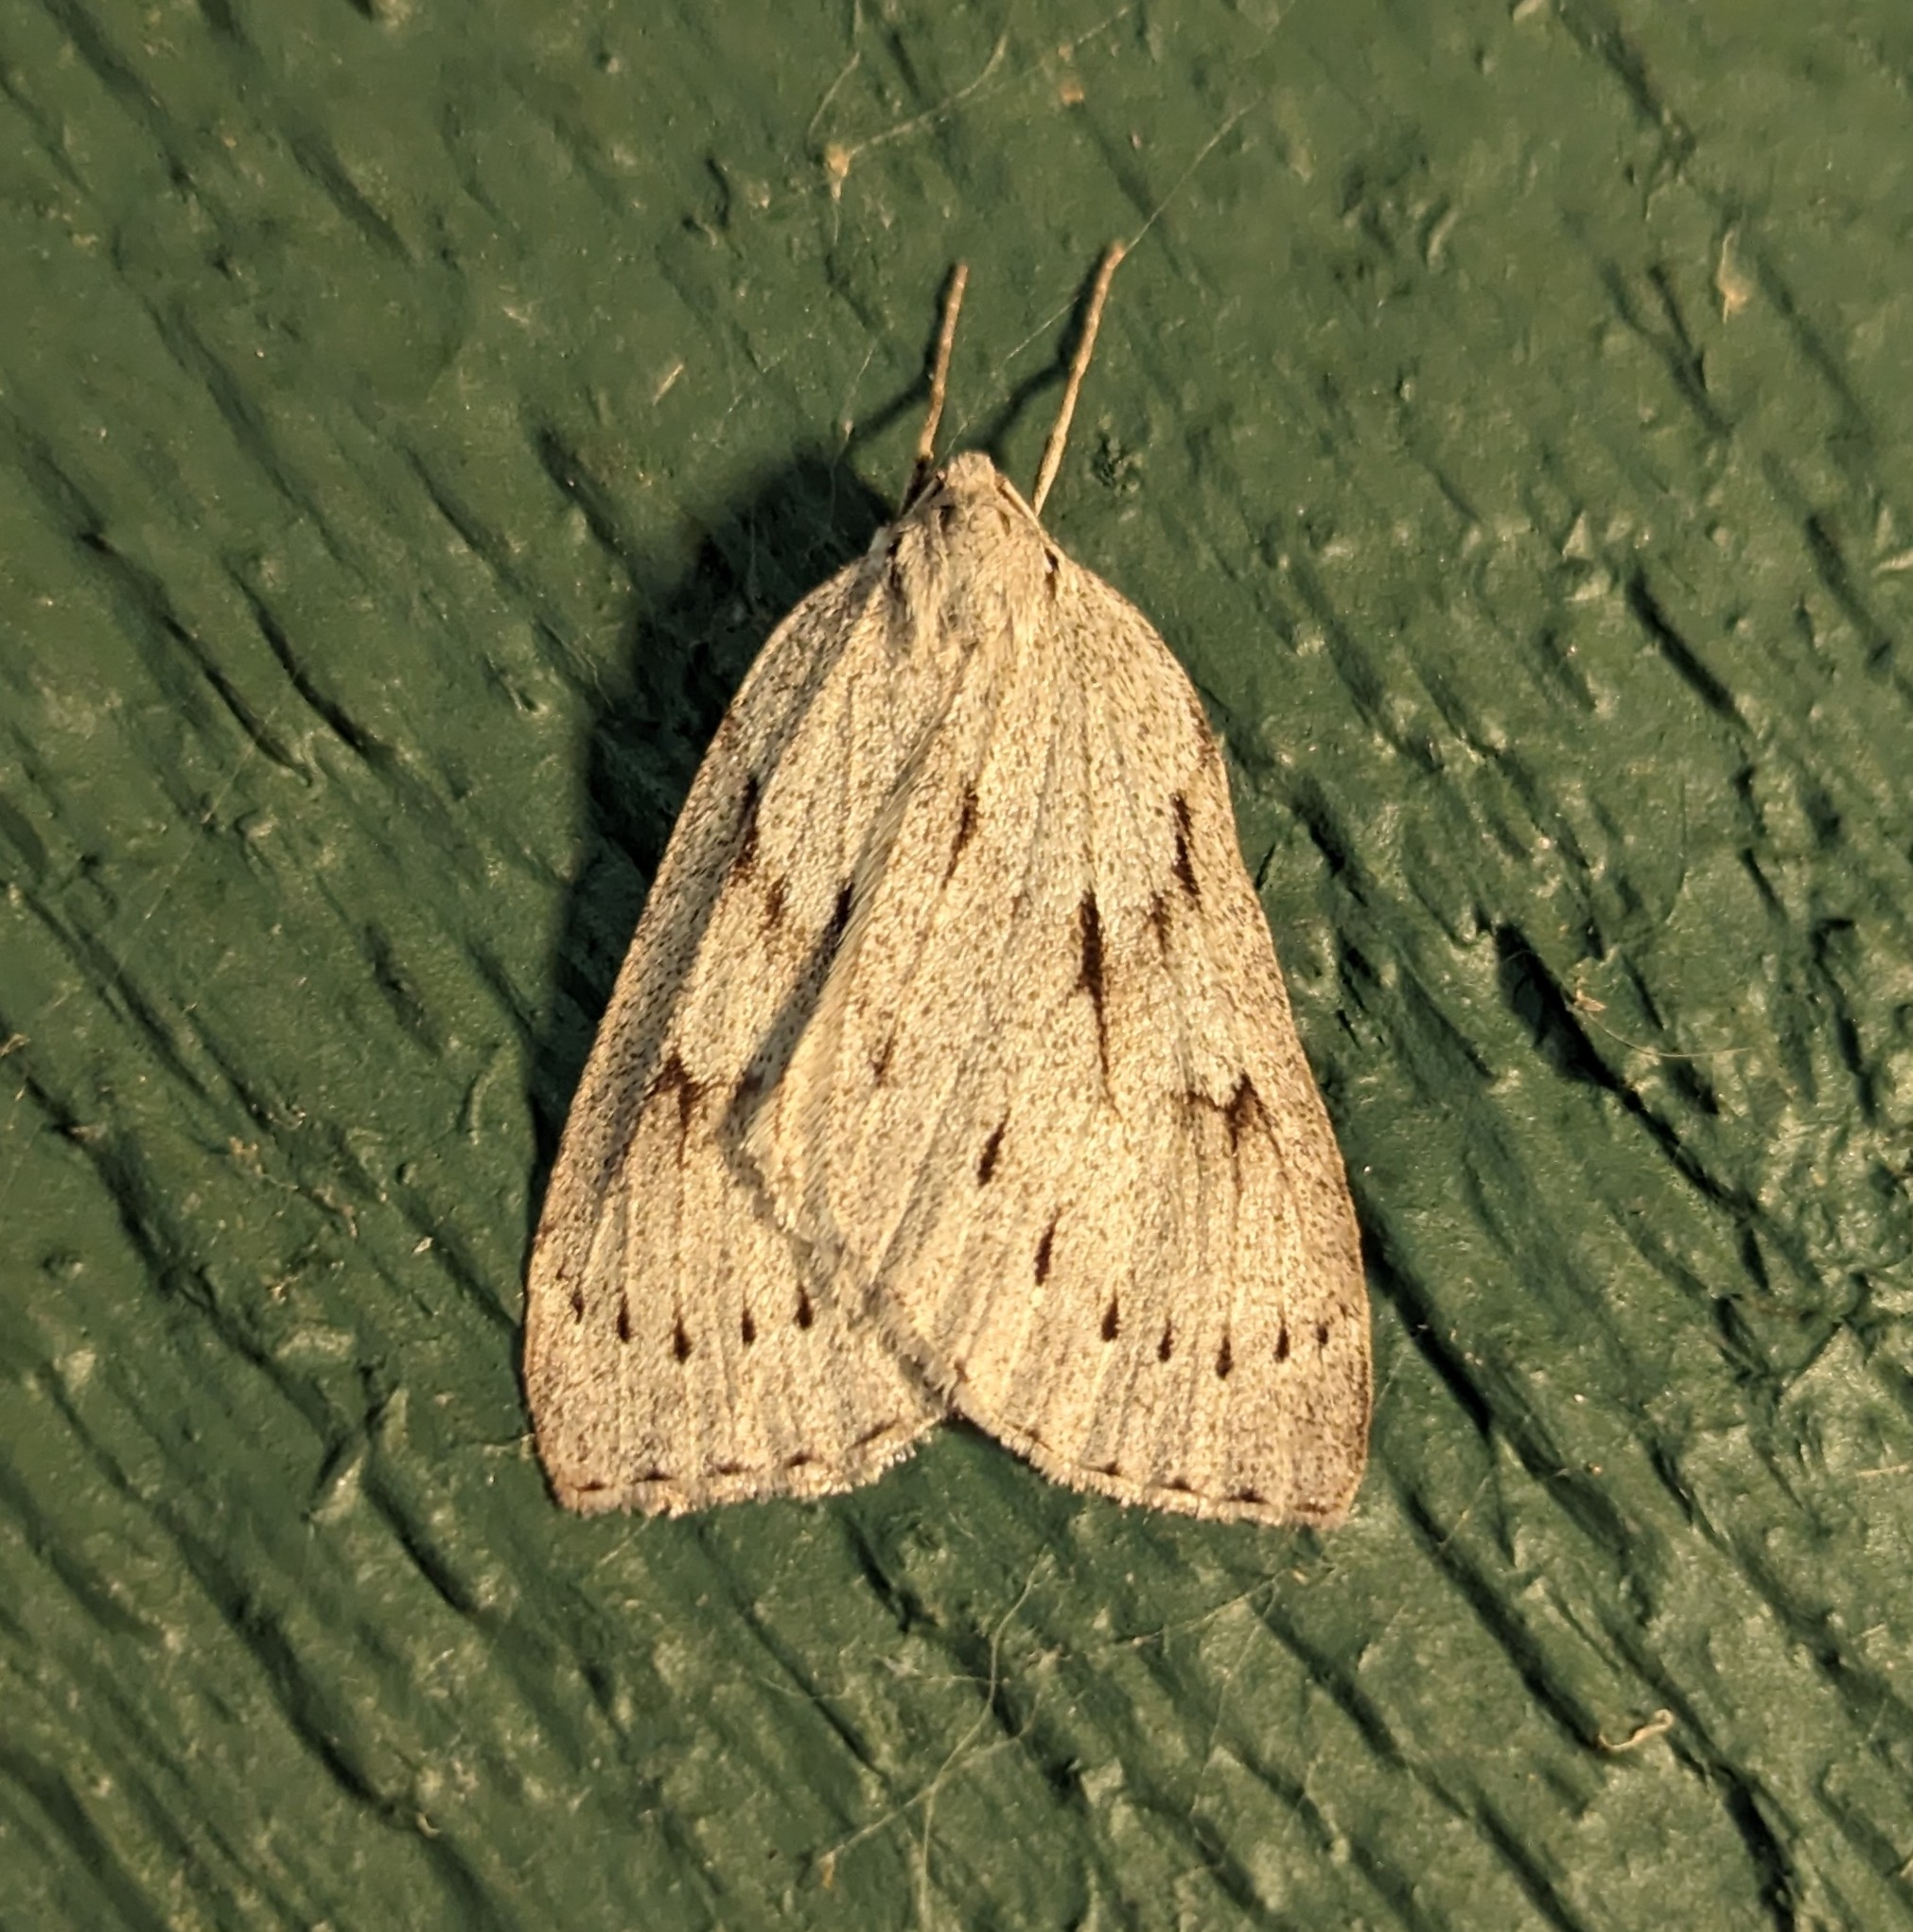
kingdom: Animalia
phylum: Arthropoda
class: Insecta
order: Lepidoptera
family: Geometridae
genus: Philedia
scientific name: Philedia punctomacularia
